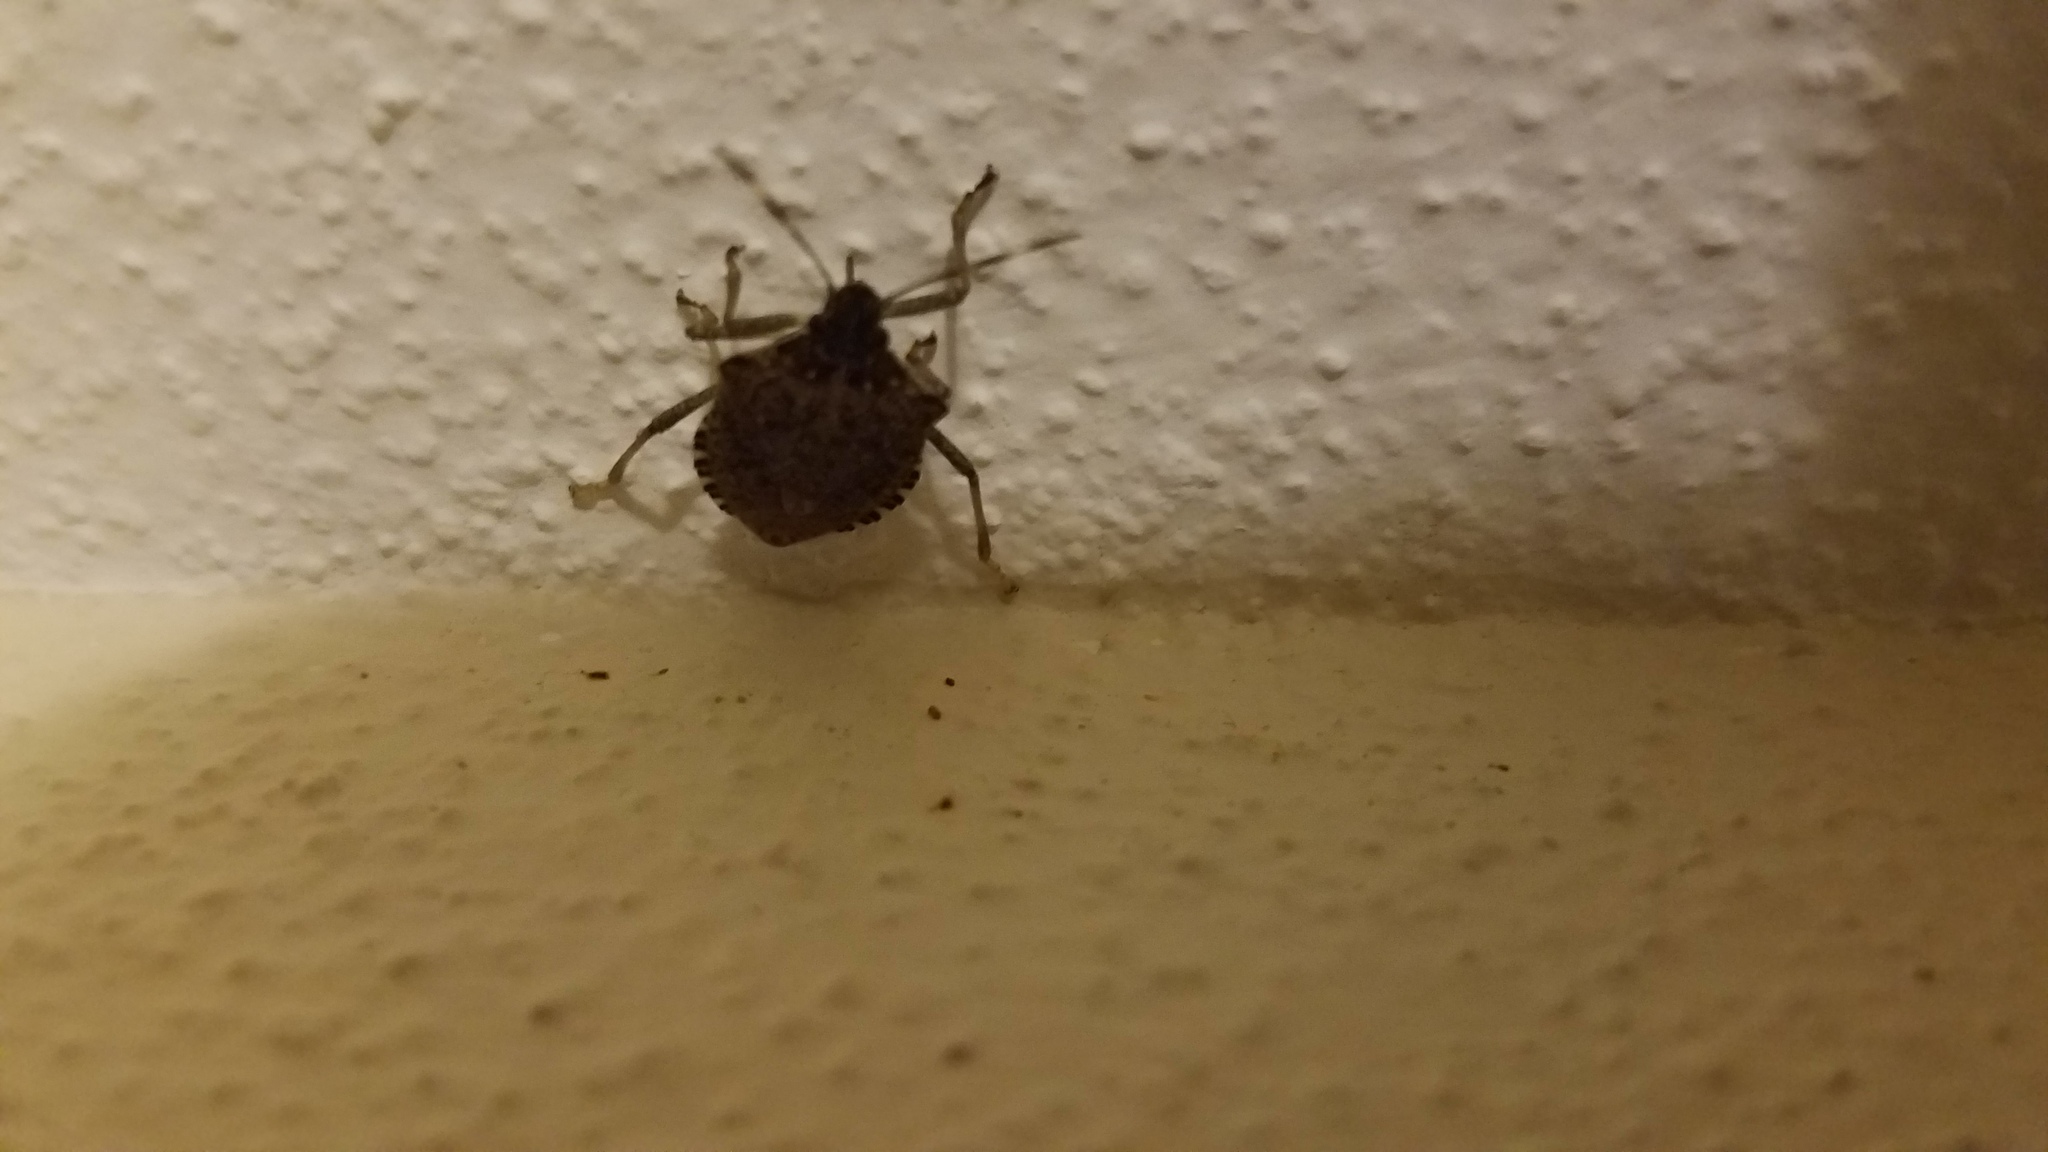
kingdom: Animalia
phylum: Arthropoda
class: Insecta
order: Hemiptera
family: Pentatomidae
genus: Halyomorpha
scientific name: Halyomorpha halys
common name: Brown marmorated stink bug
